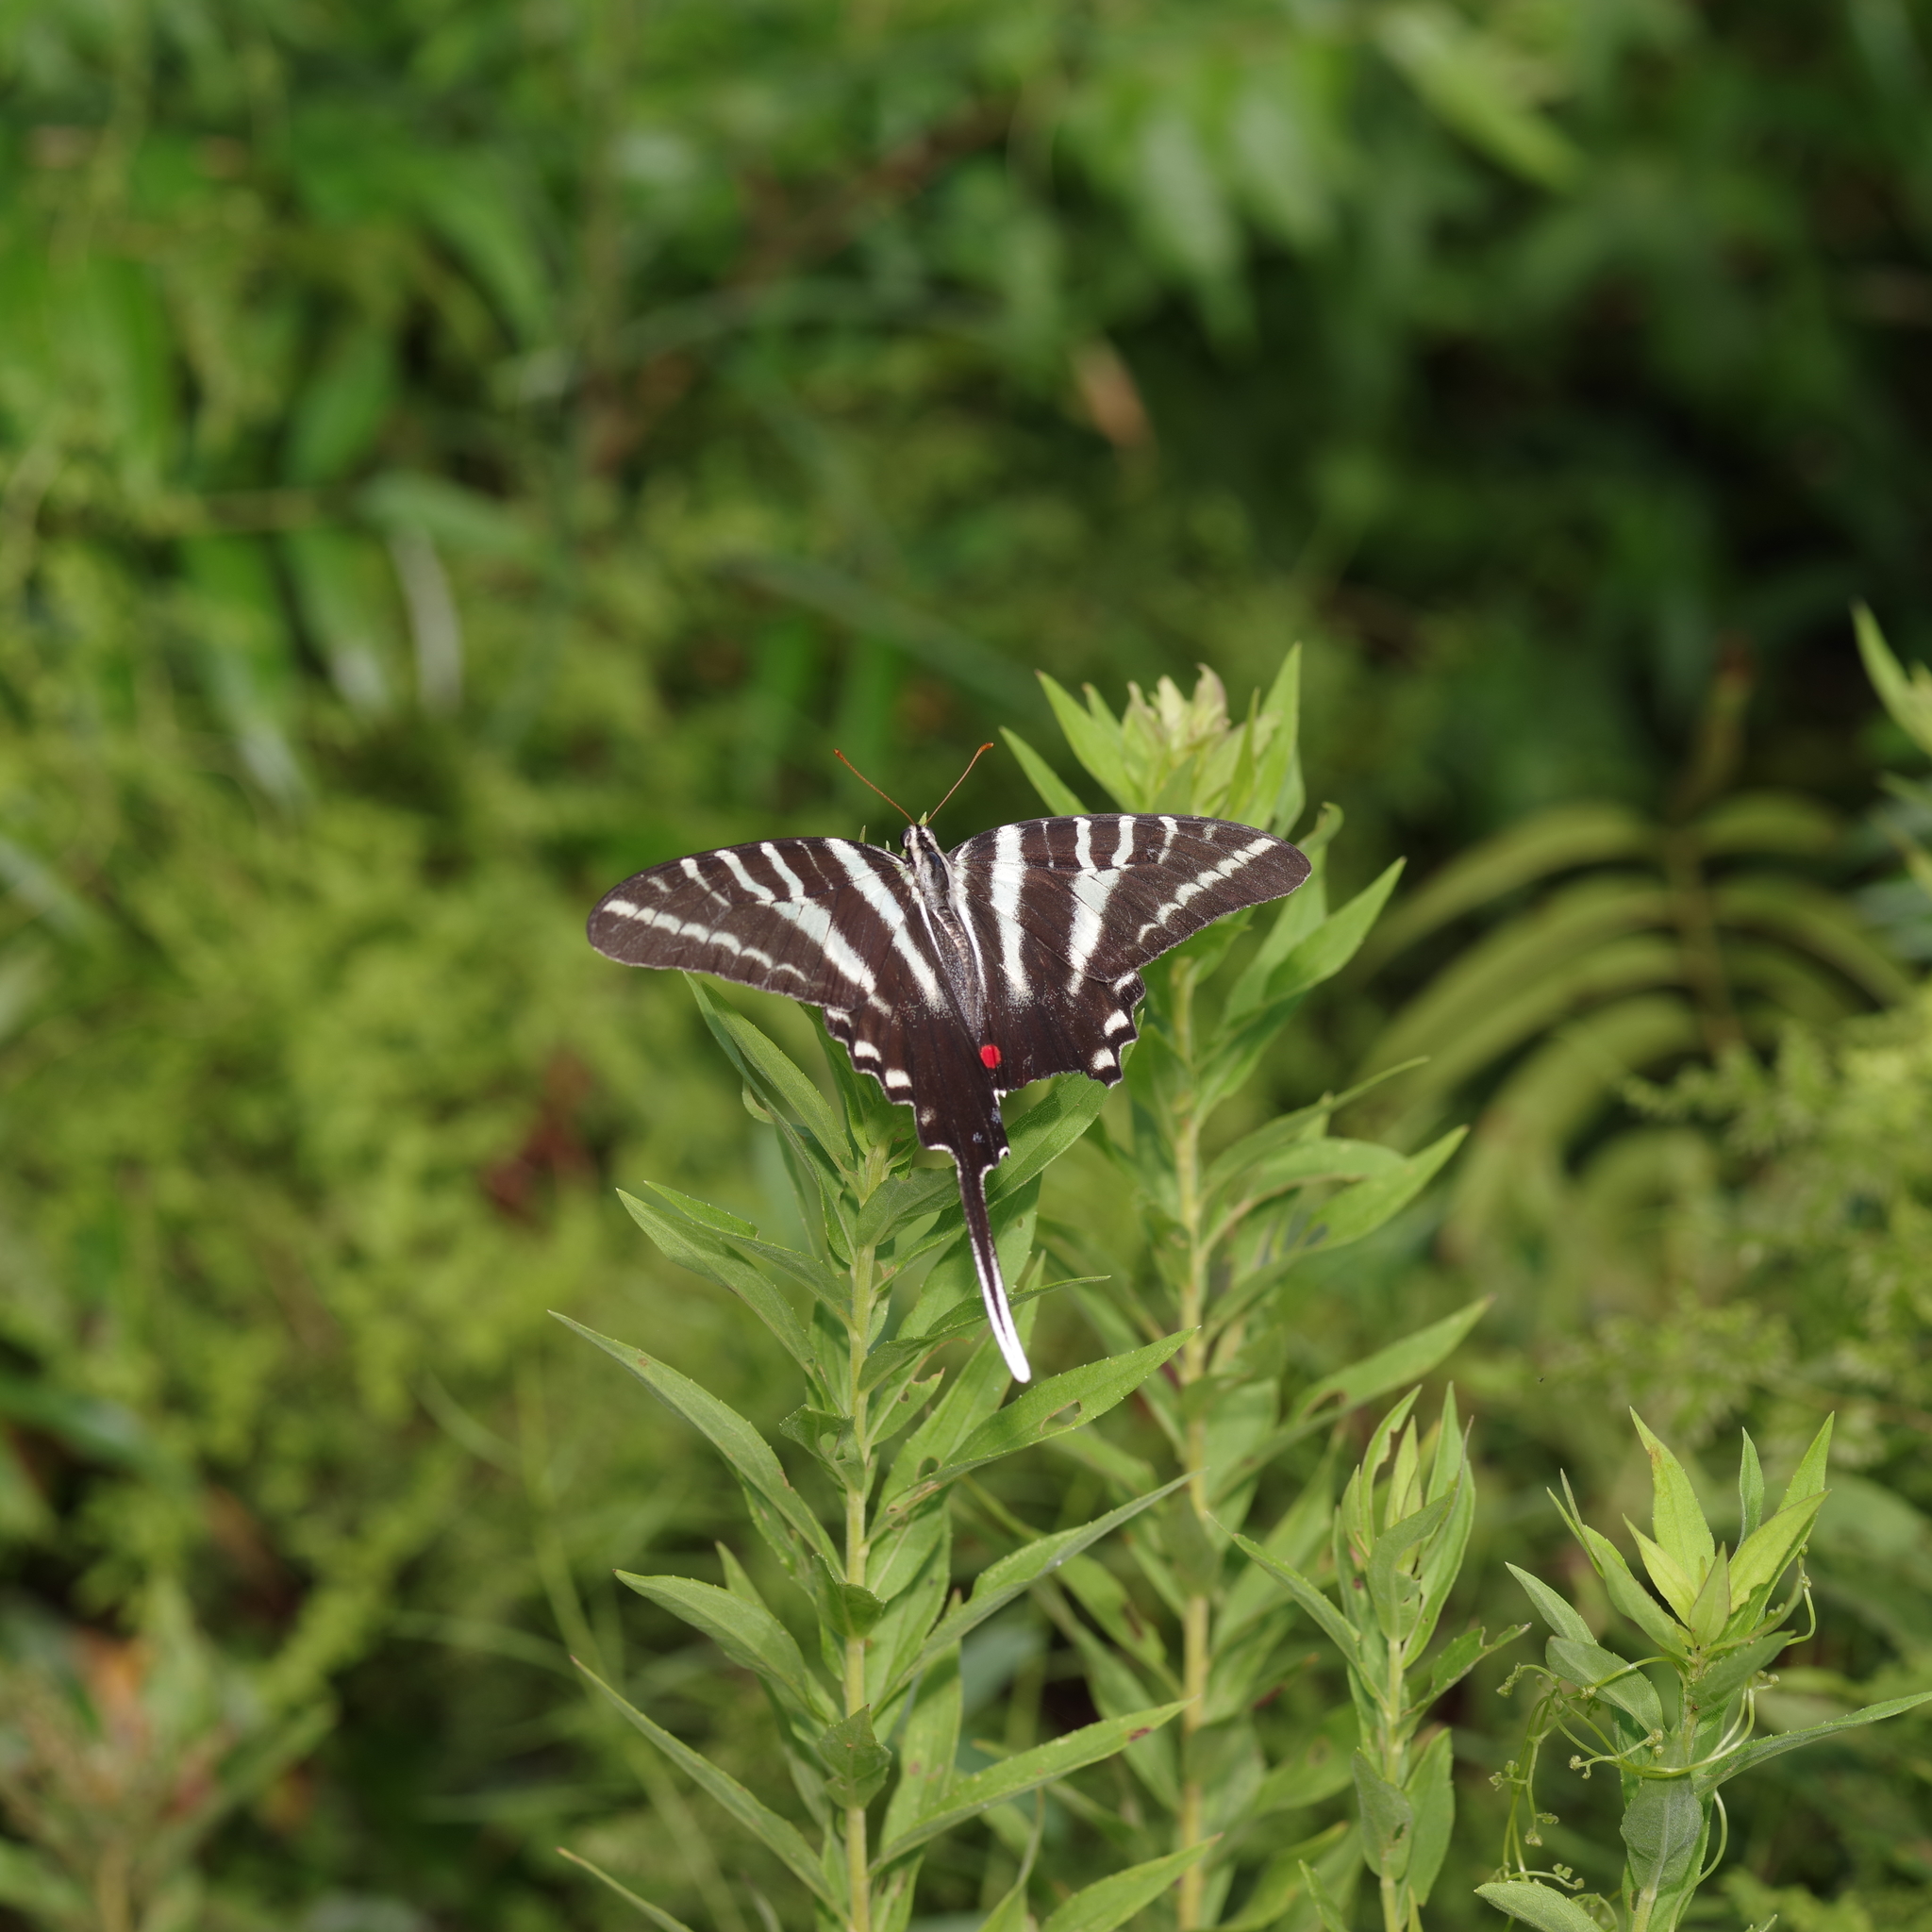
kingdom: Animalia
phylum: Arthropoda
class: Insecta
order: Lepidoptera
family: Papilionidae
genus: Protographium
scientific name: Protographium marcellus
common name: Zebra swallowtail
